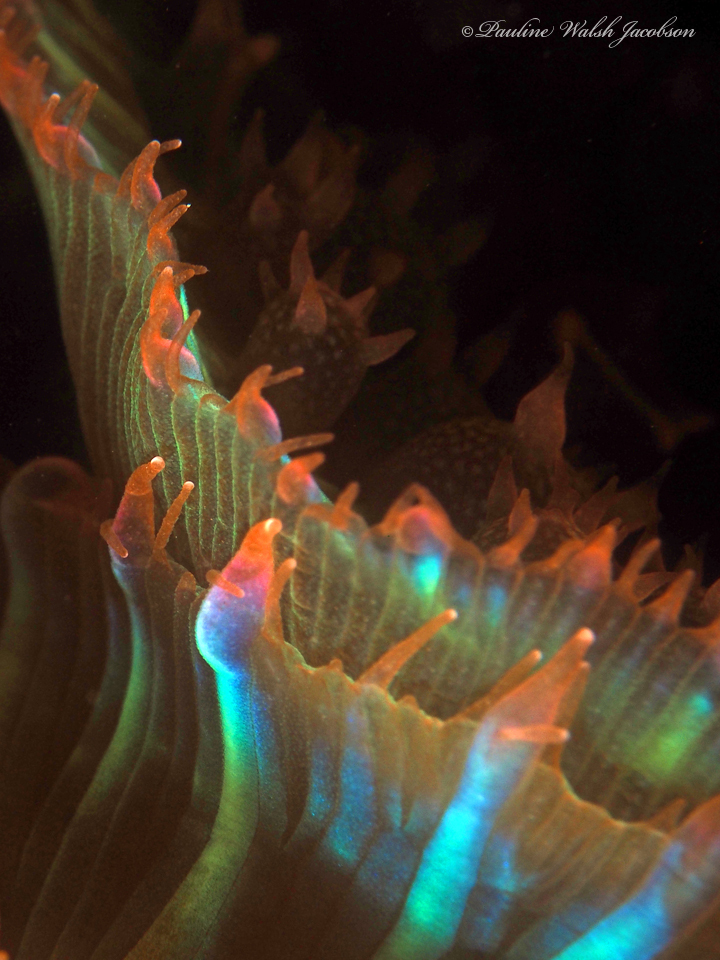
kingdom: Animalia
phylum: Cnidaria
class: Anthozoa
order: Corallimorpharia
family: Discosomidae
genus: Rhodactis
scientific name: Rhodactis osculifera
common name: Warty corallimorph
